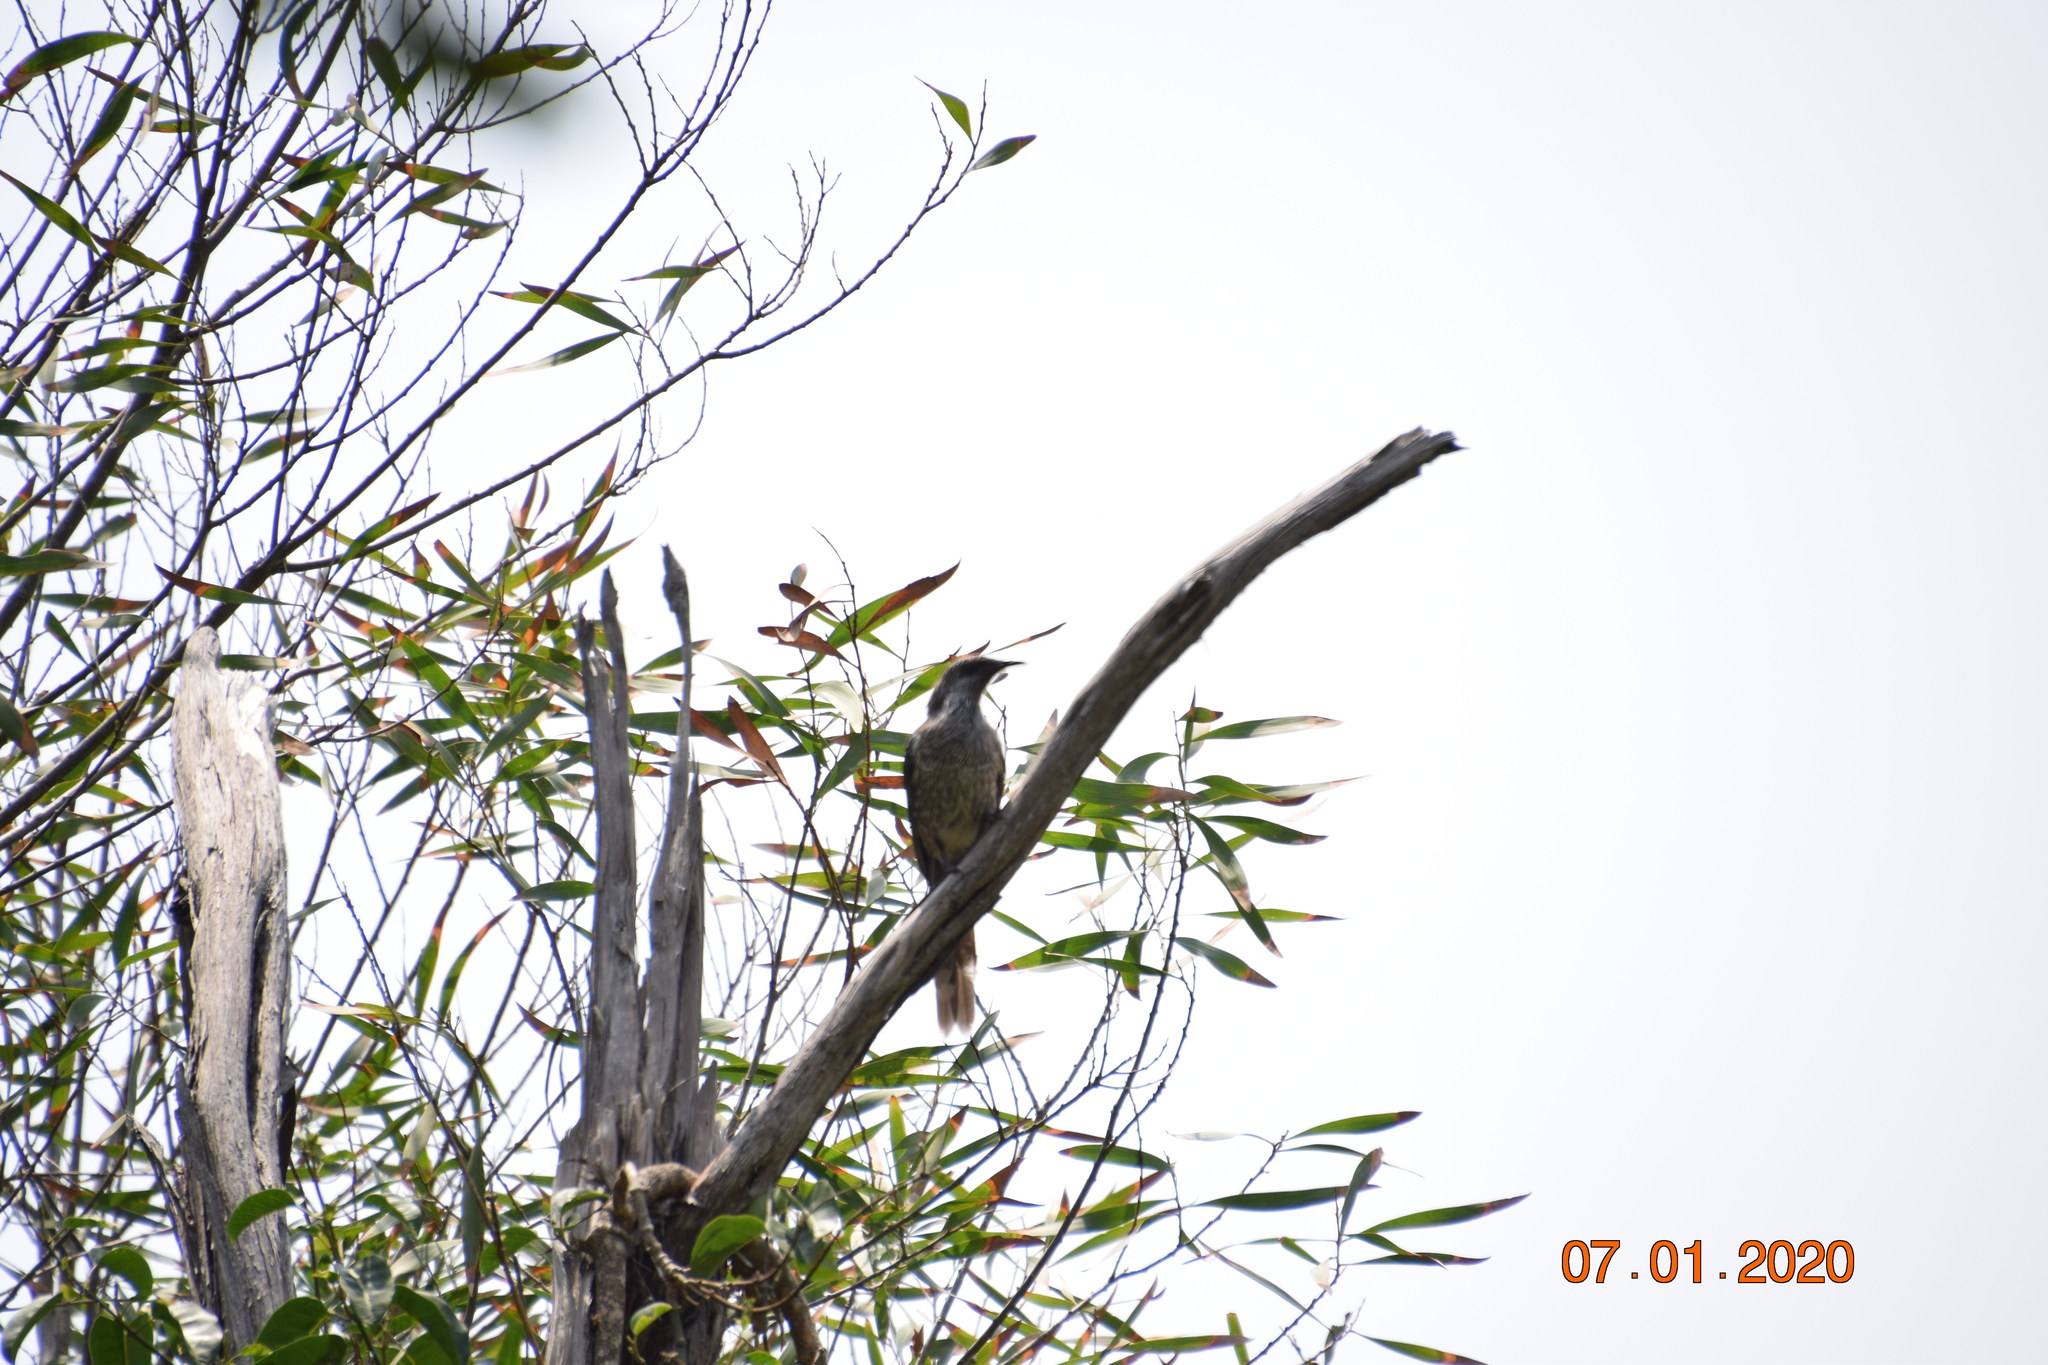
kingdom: Animalia
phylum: Chordata
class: Aves
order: Passeriformes
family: Meliphagidae
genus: Anthochaera
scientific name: Anthochaera chrysoptera
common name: Little wattlebird
